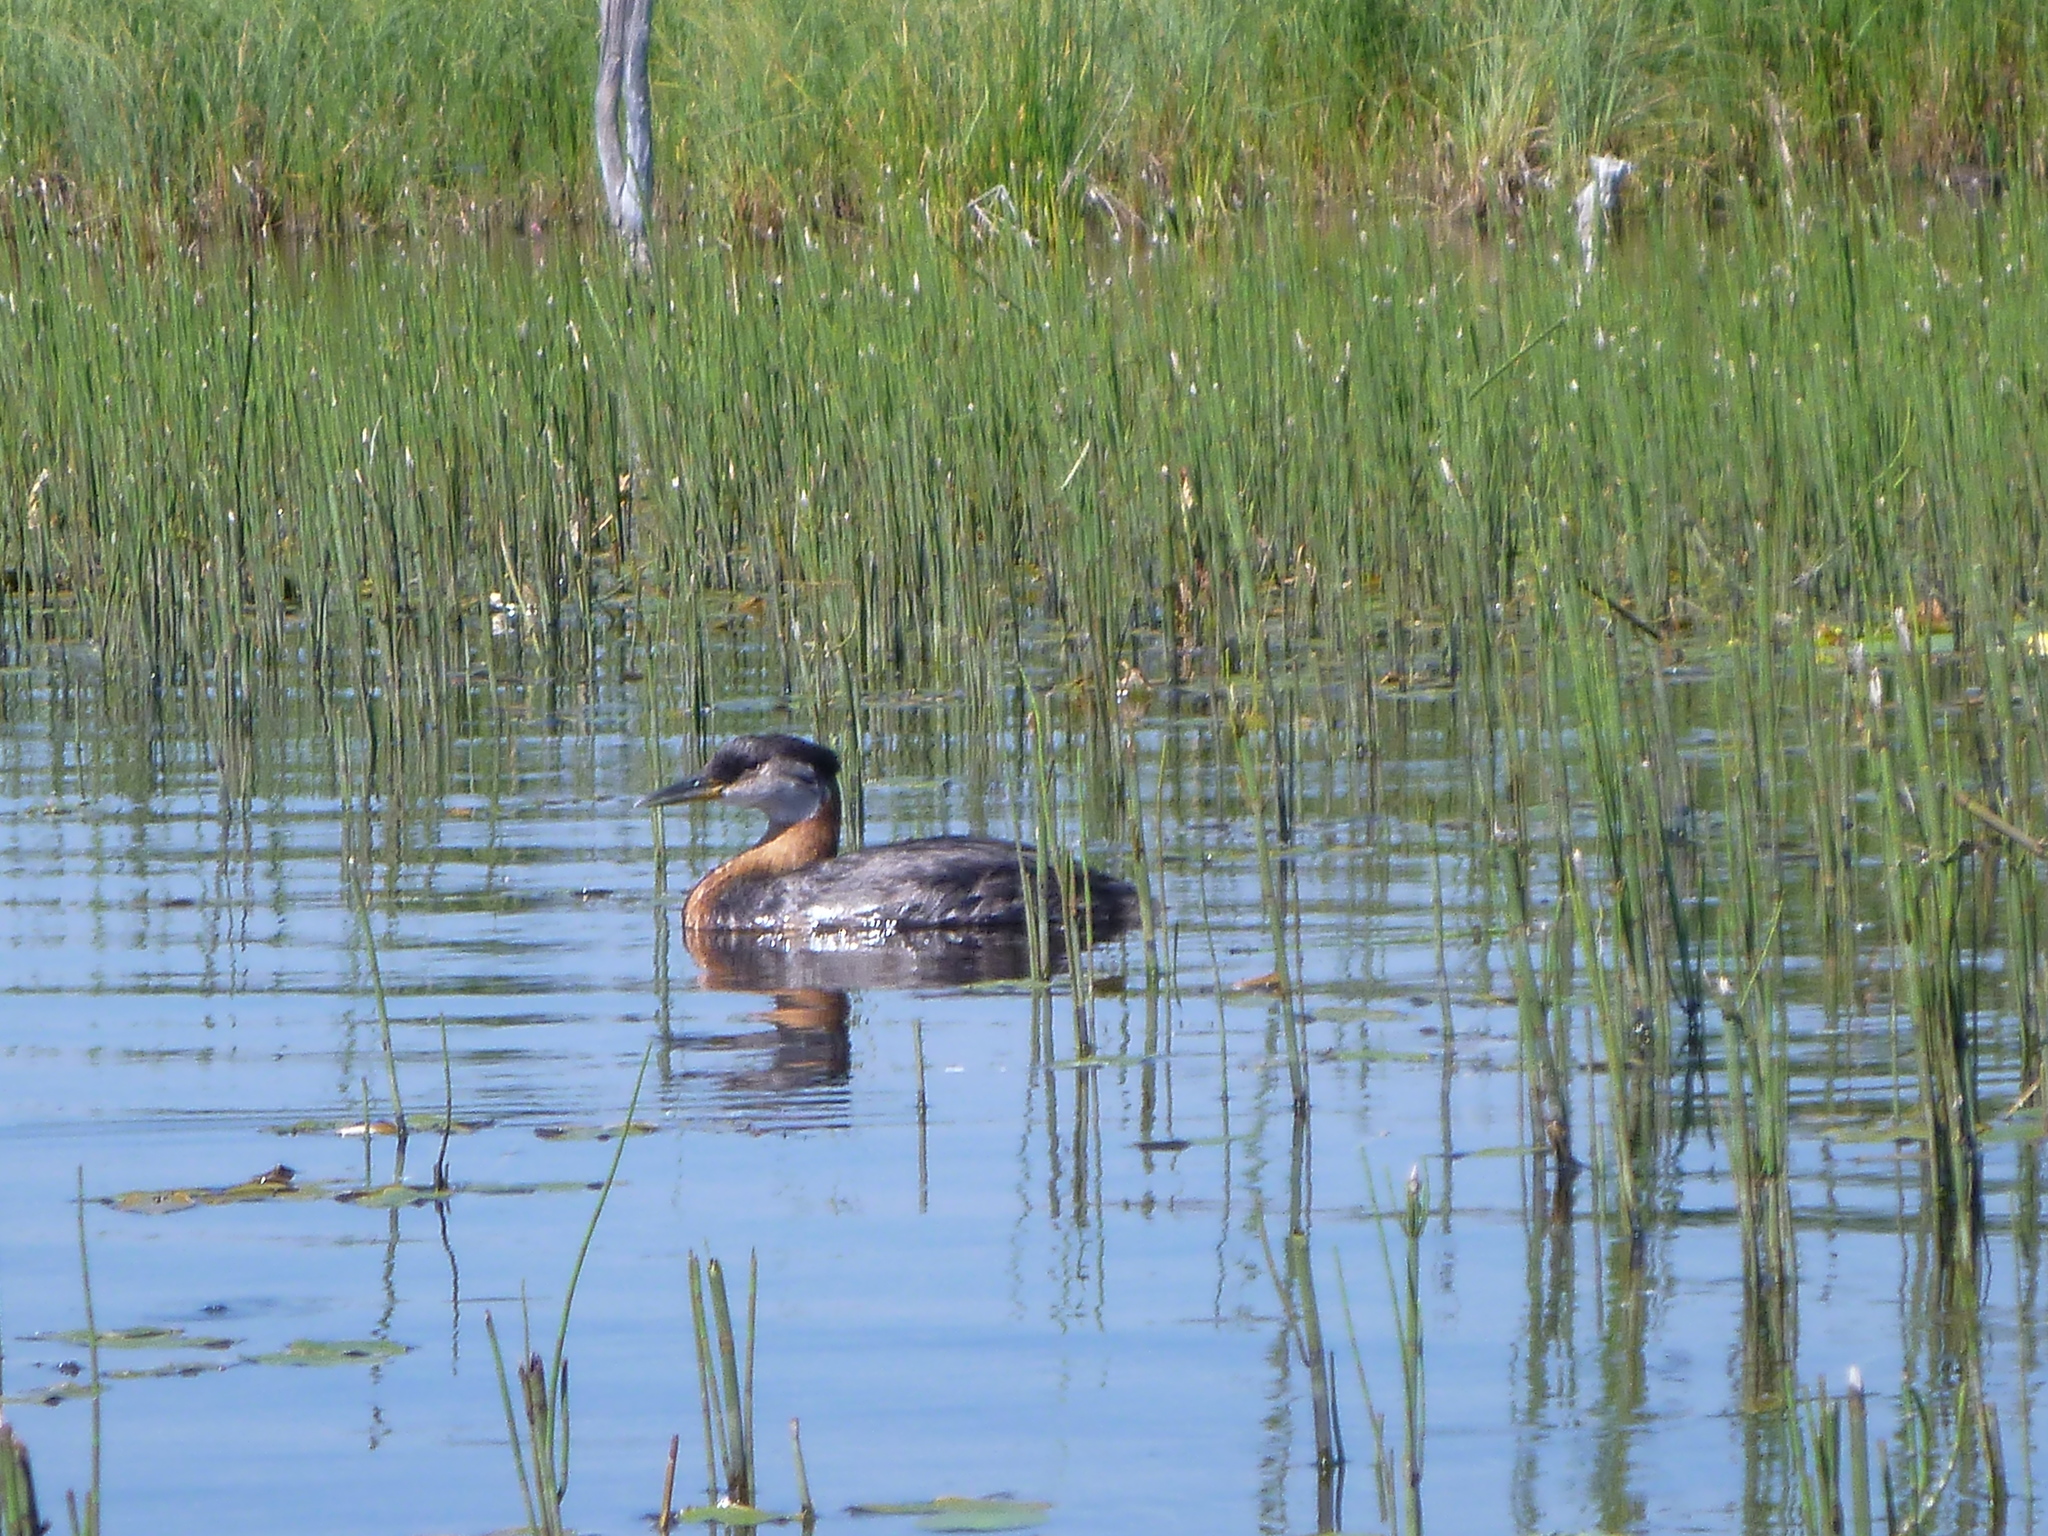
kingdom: Animalia
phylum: Chordata
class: Aves
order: Podicipediformes
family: Podicipedidae
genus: Podiceps
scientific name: Podiceps grisegena
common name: Red-necked grebe
